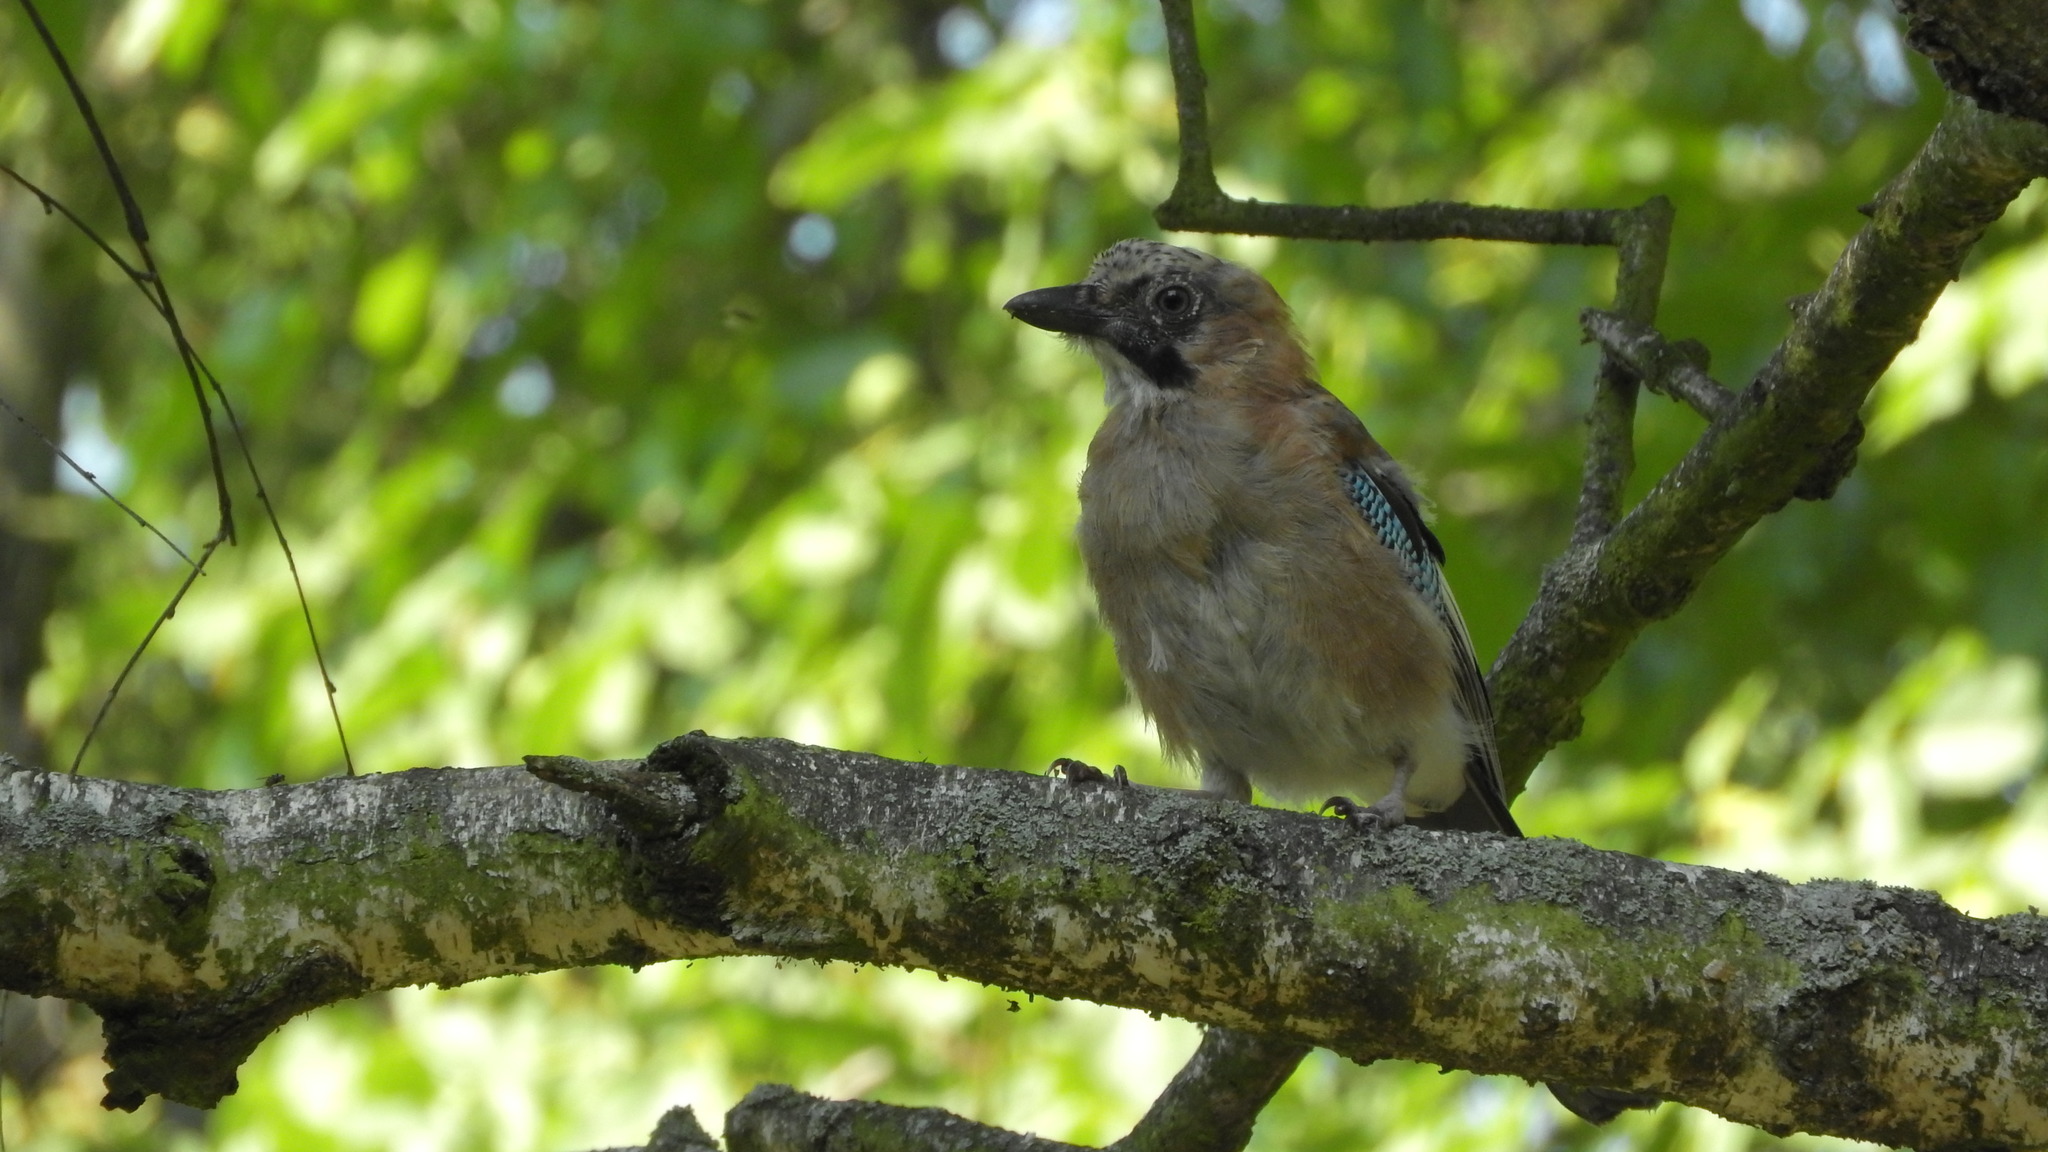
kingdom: Animalia
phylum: Chordata
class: Aves
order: Passeriformes
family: Corvidae
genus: Garrulus
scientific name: Garrulus glandarius
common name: Eurasian jay
